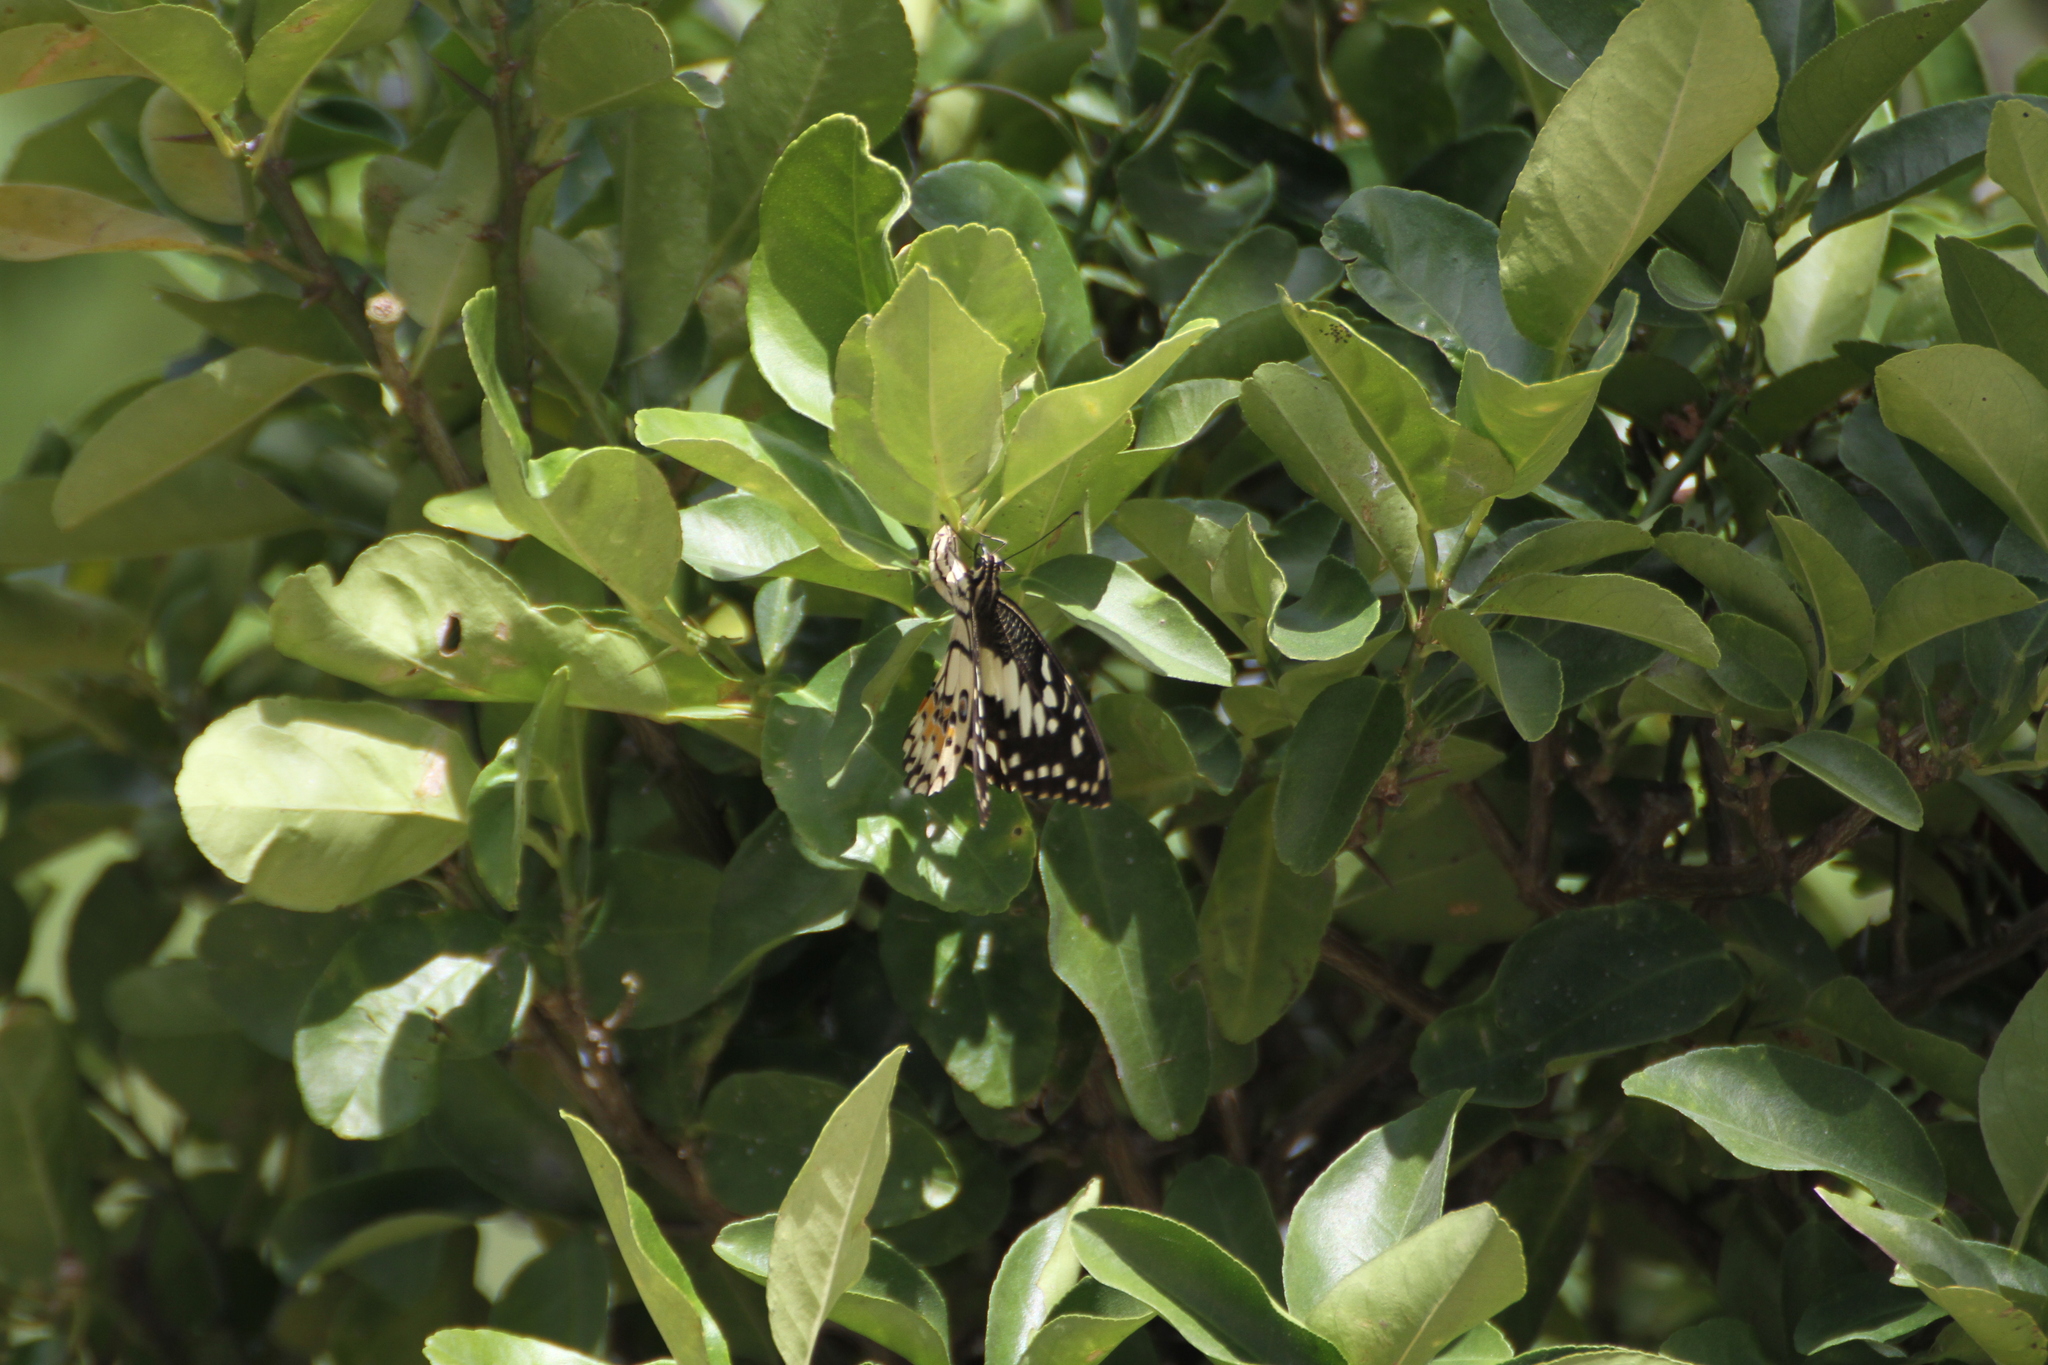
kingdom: Animalia
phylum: Arthropoda
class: Insecta
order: Lepidoptera
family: Papilionidae
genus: Papilio
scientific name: Papilio demoleus
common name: Lime butterfly
